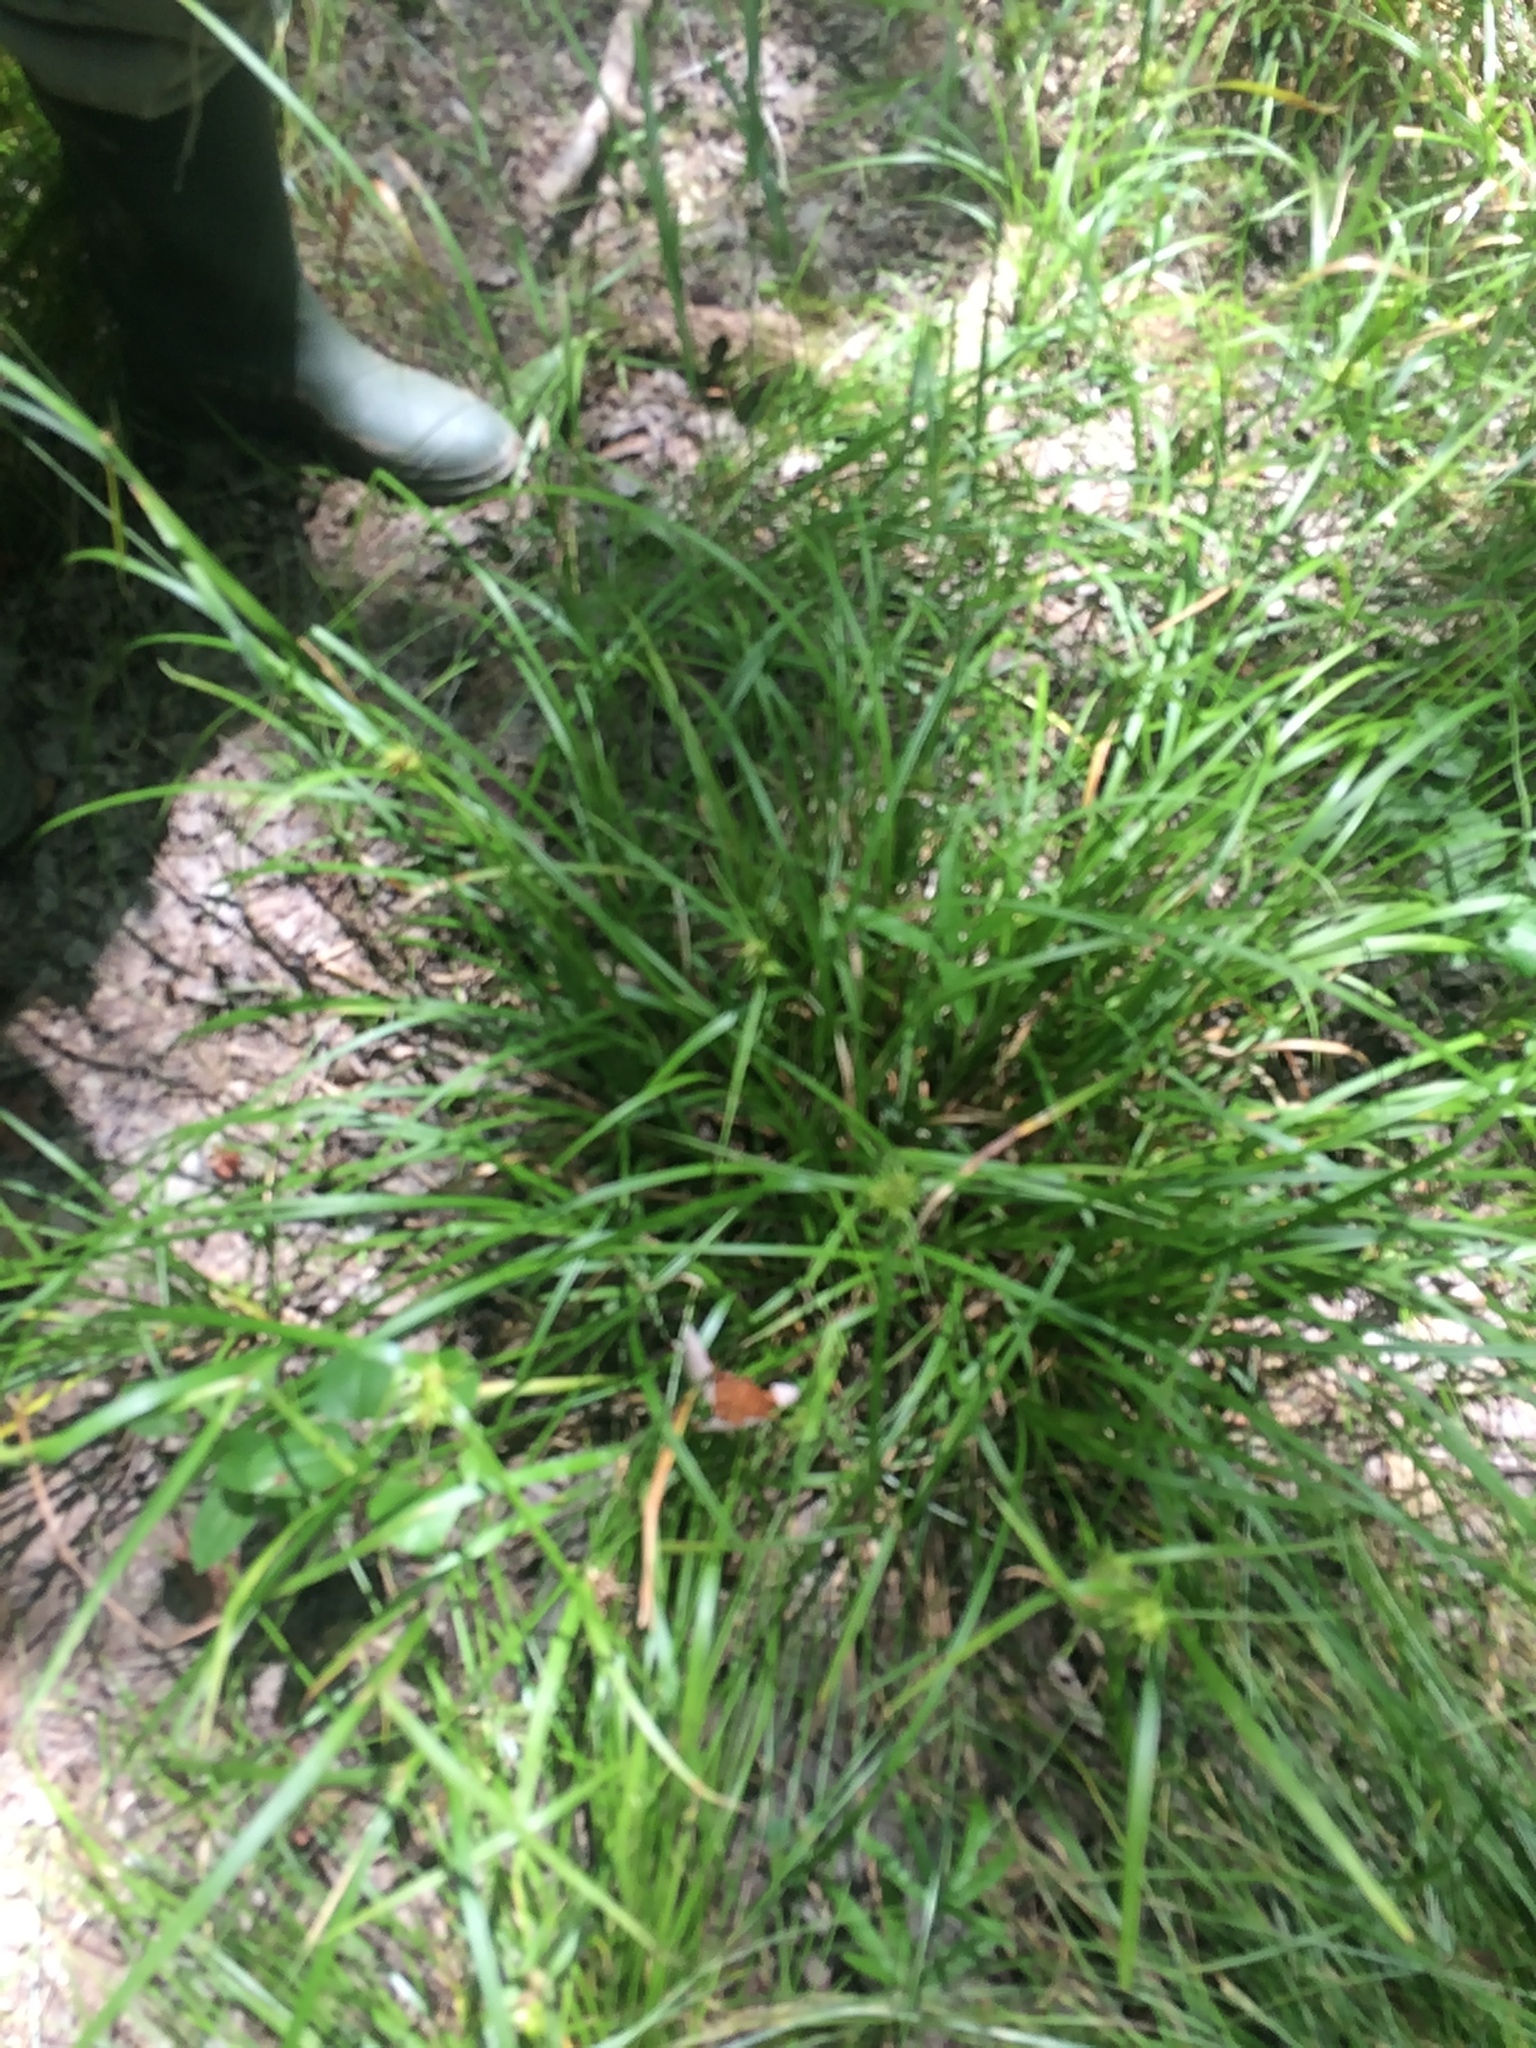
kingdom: Plantae
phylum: Tracheophyta
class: Liliopsida
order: Poales
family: Cyperaceae
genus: Carex
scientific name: Carex intumescens
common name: Greater bladder sedge
